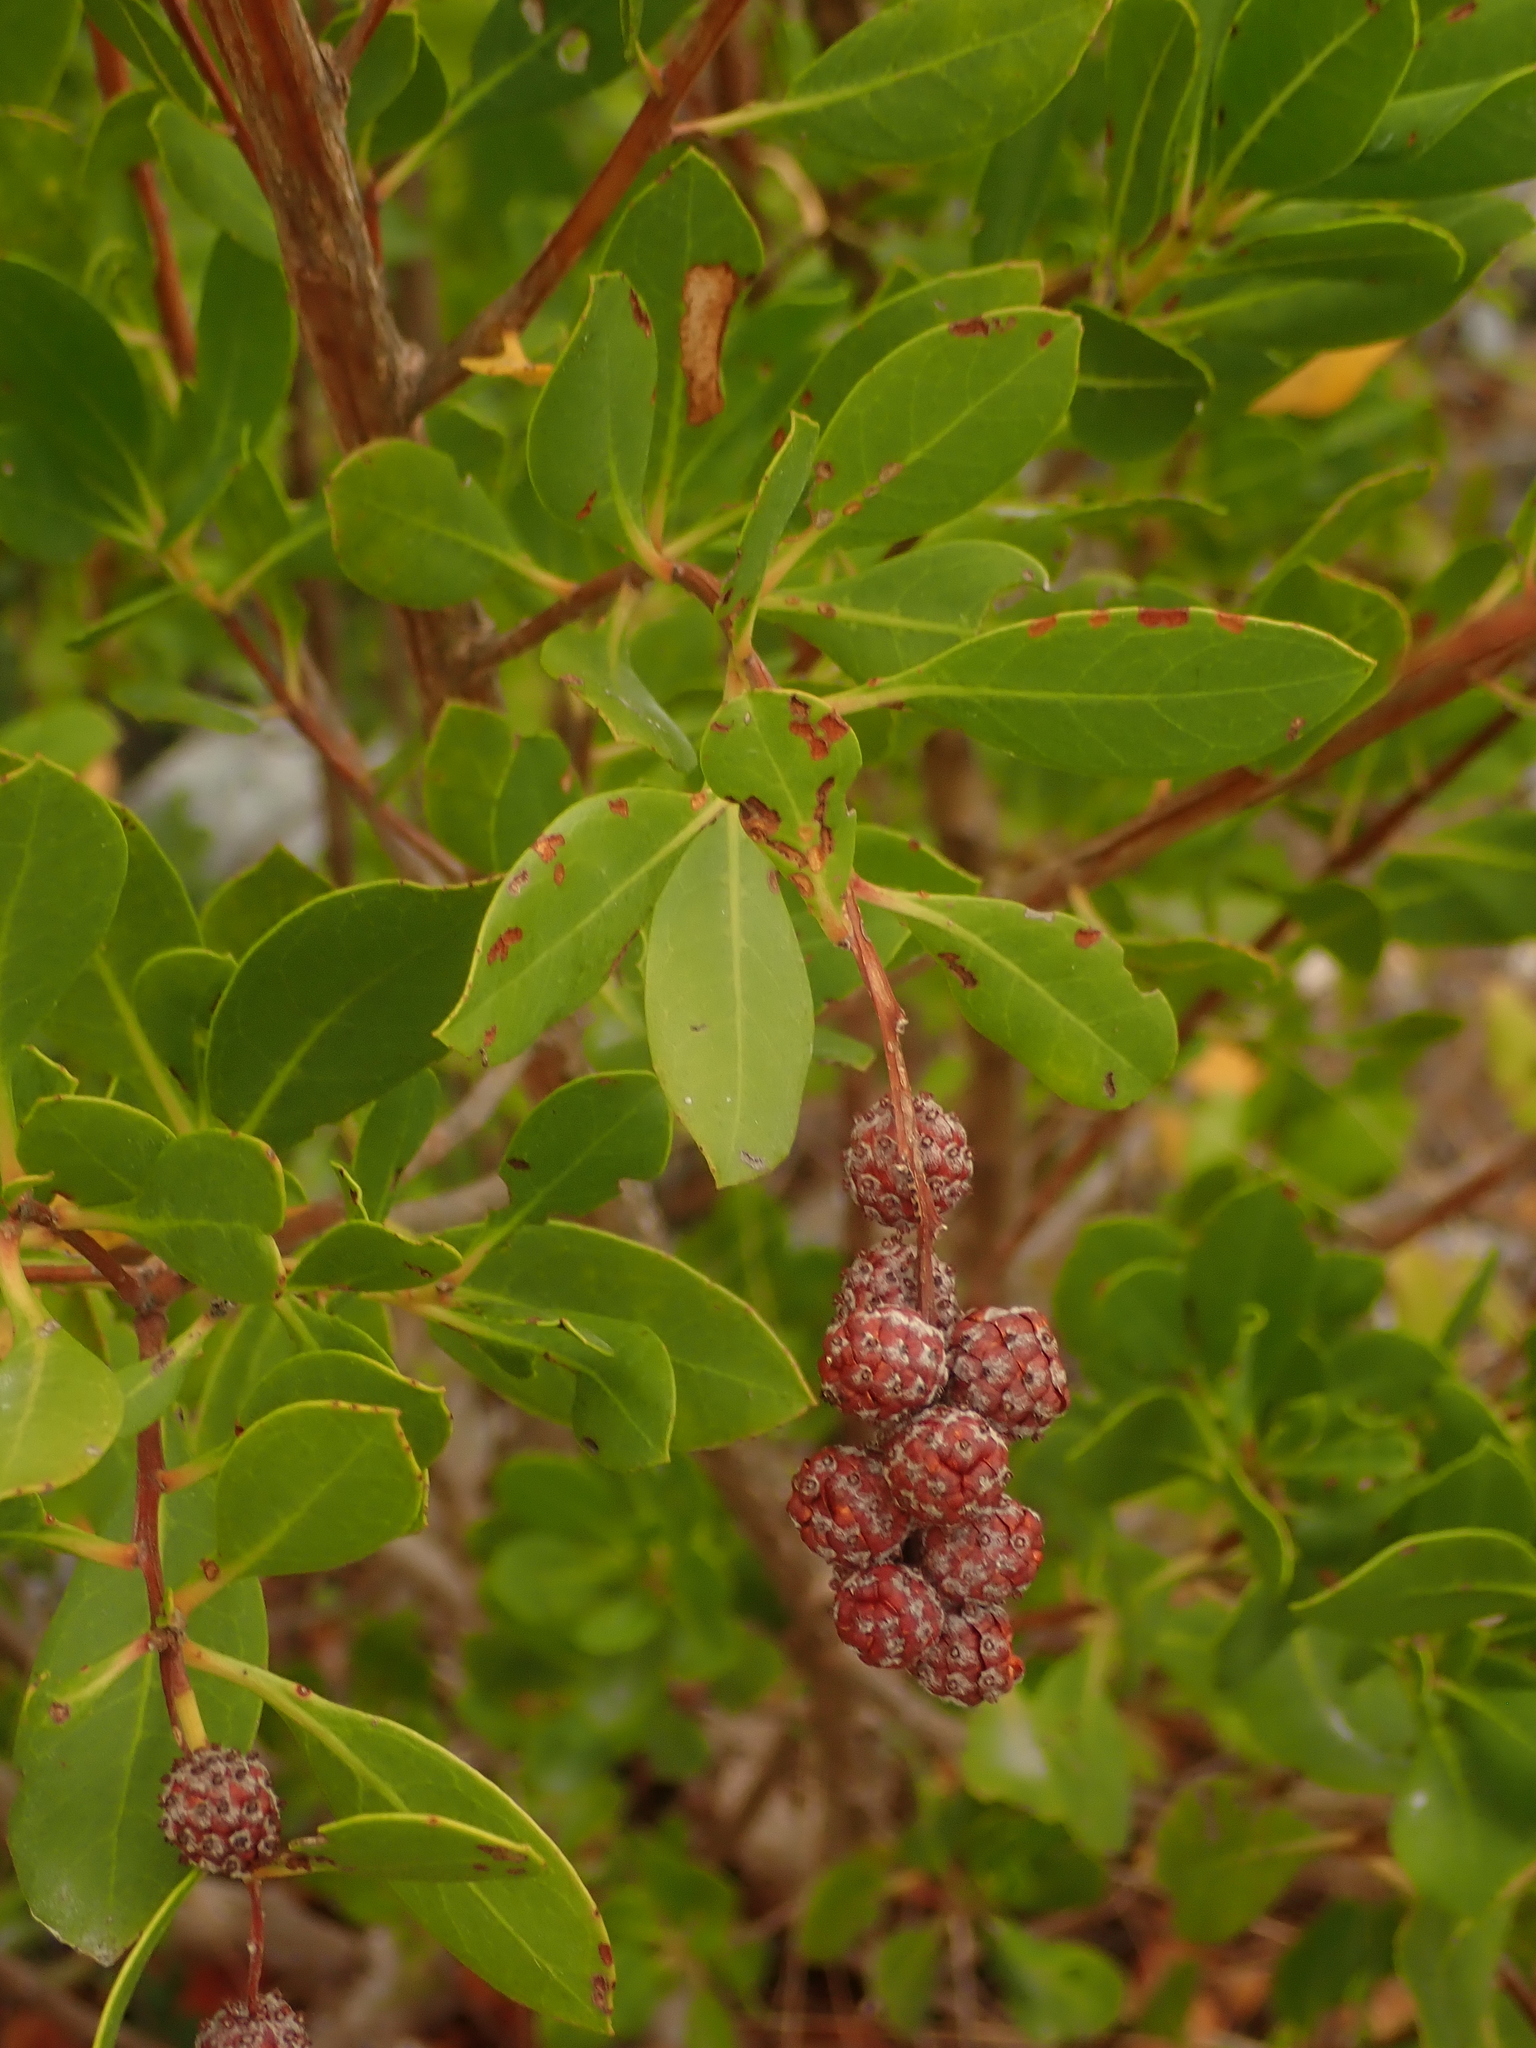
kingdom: Plantae
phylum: Tracheophyta
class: Magnoliopsida
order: Myrtales
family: Combretaceae
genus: Conocarpus
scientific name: Conocarpus erectus
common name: Button mangrove
